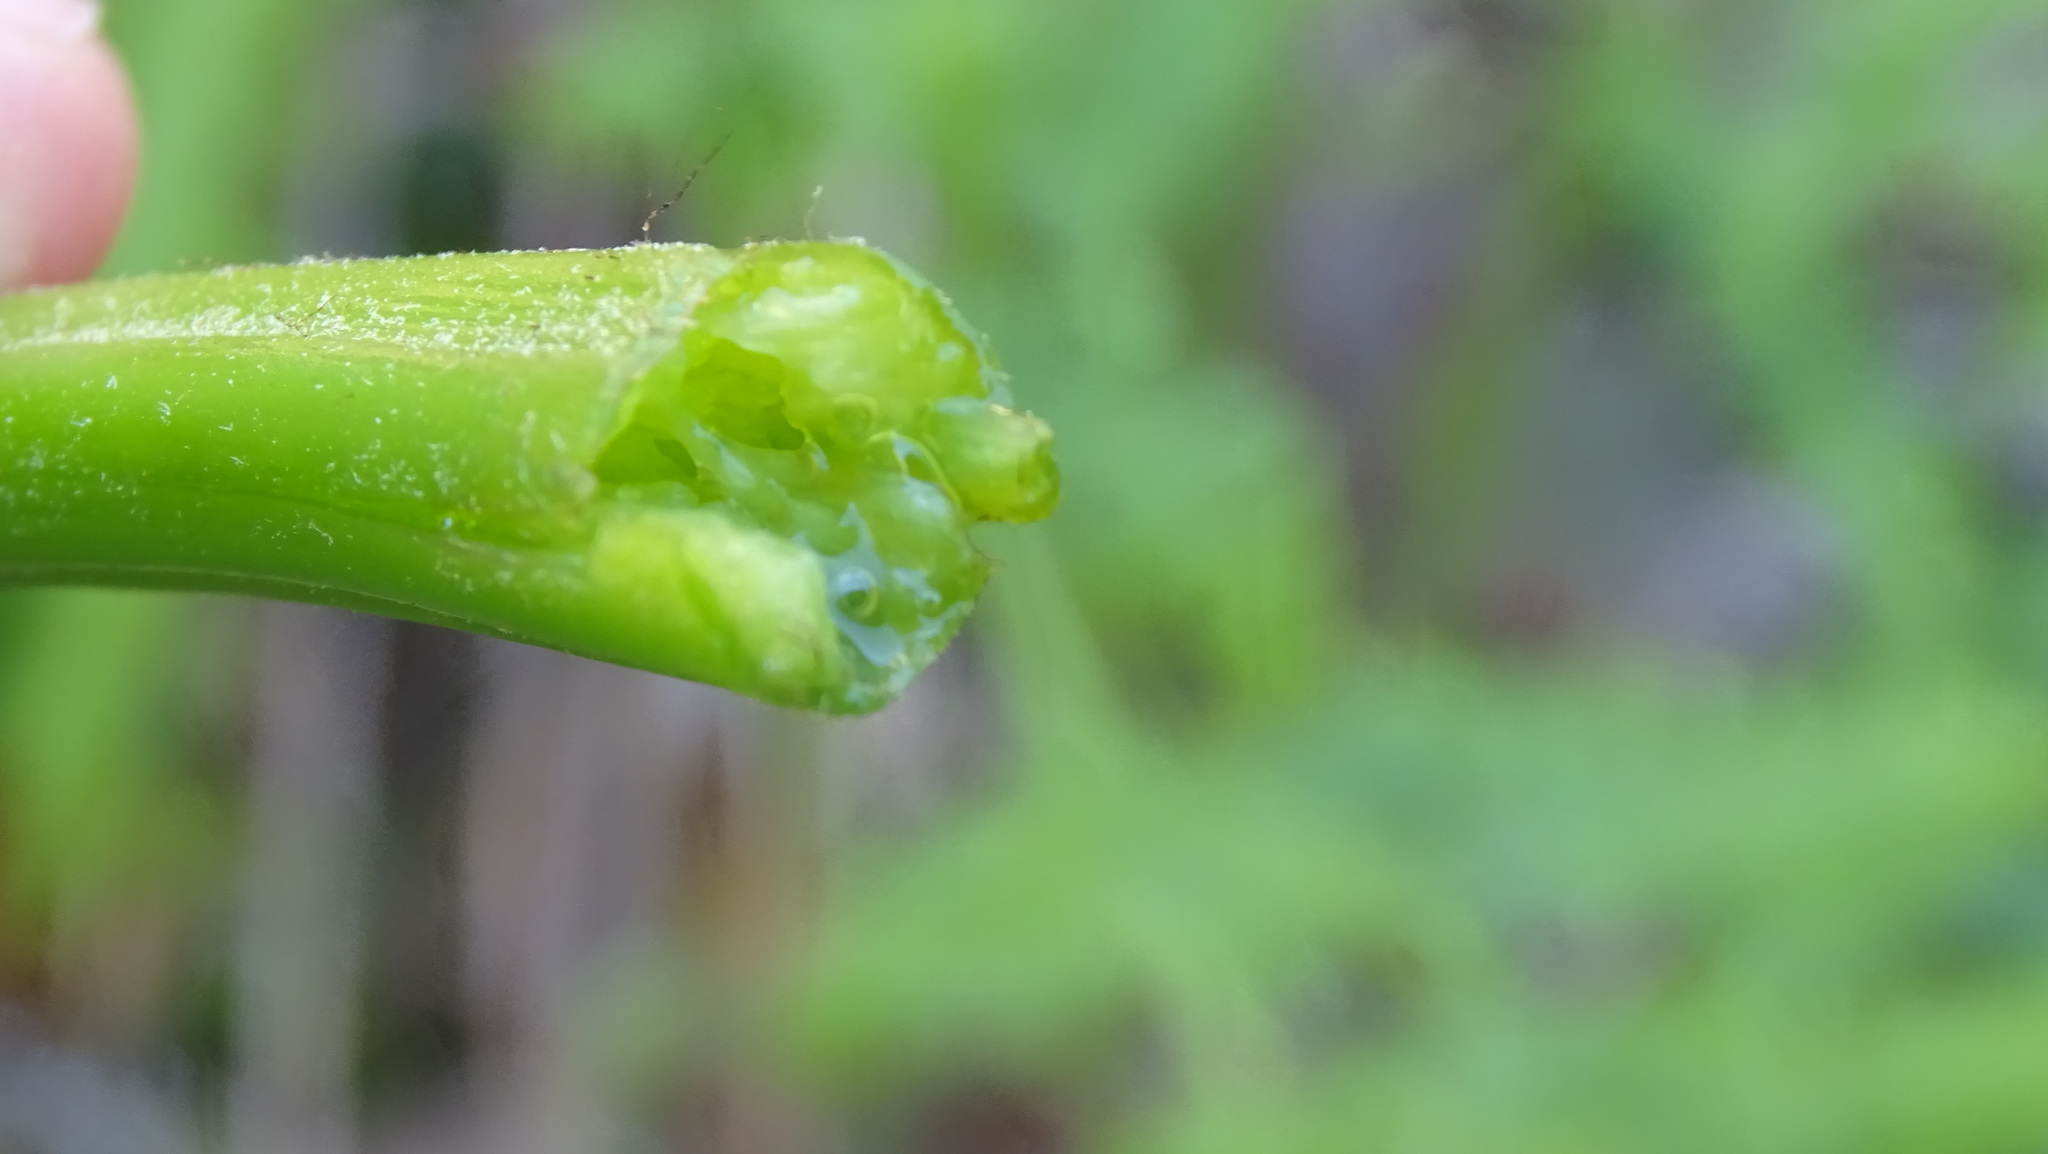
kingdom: Plantae
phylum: Tracheophyta
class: Polypodiopsida
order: Polypodiales
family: Dennstaedtiaceae
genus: Pteridium
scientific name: Pteridium aquilinum
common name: Bracken
